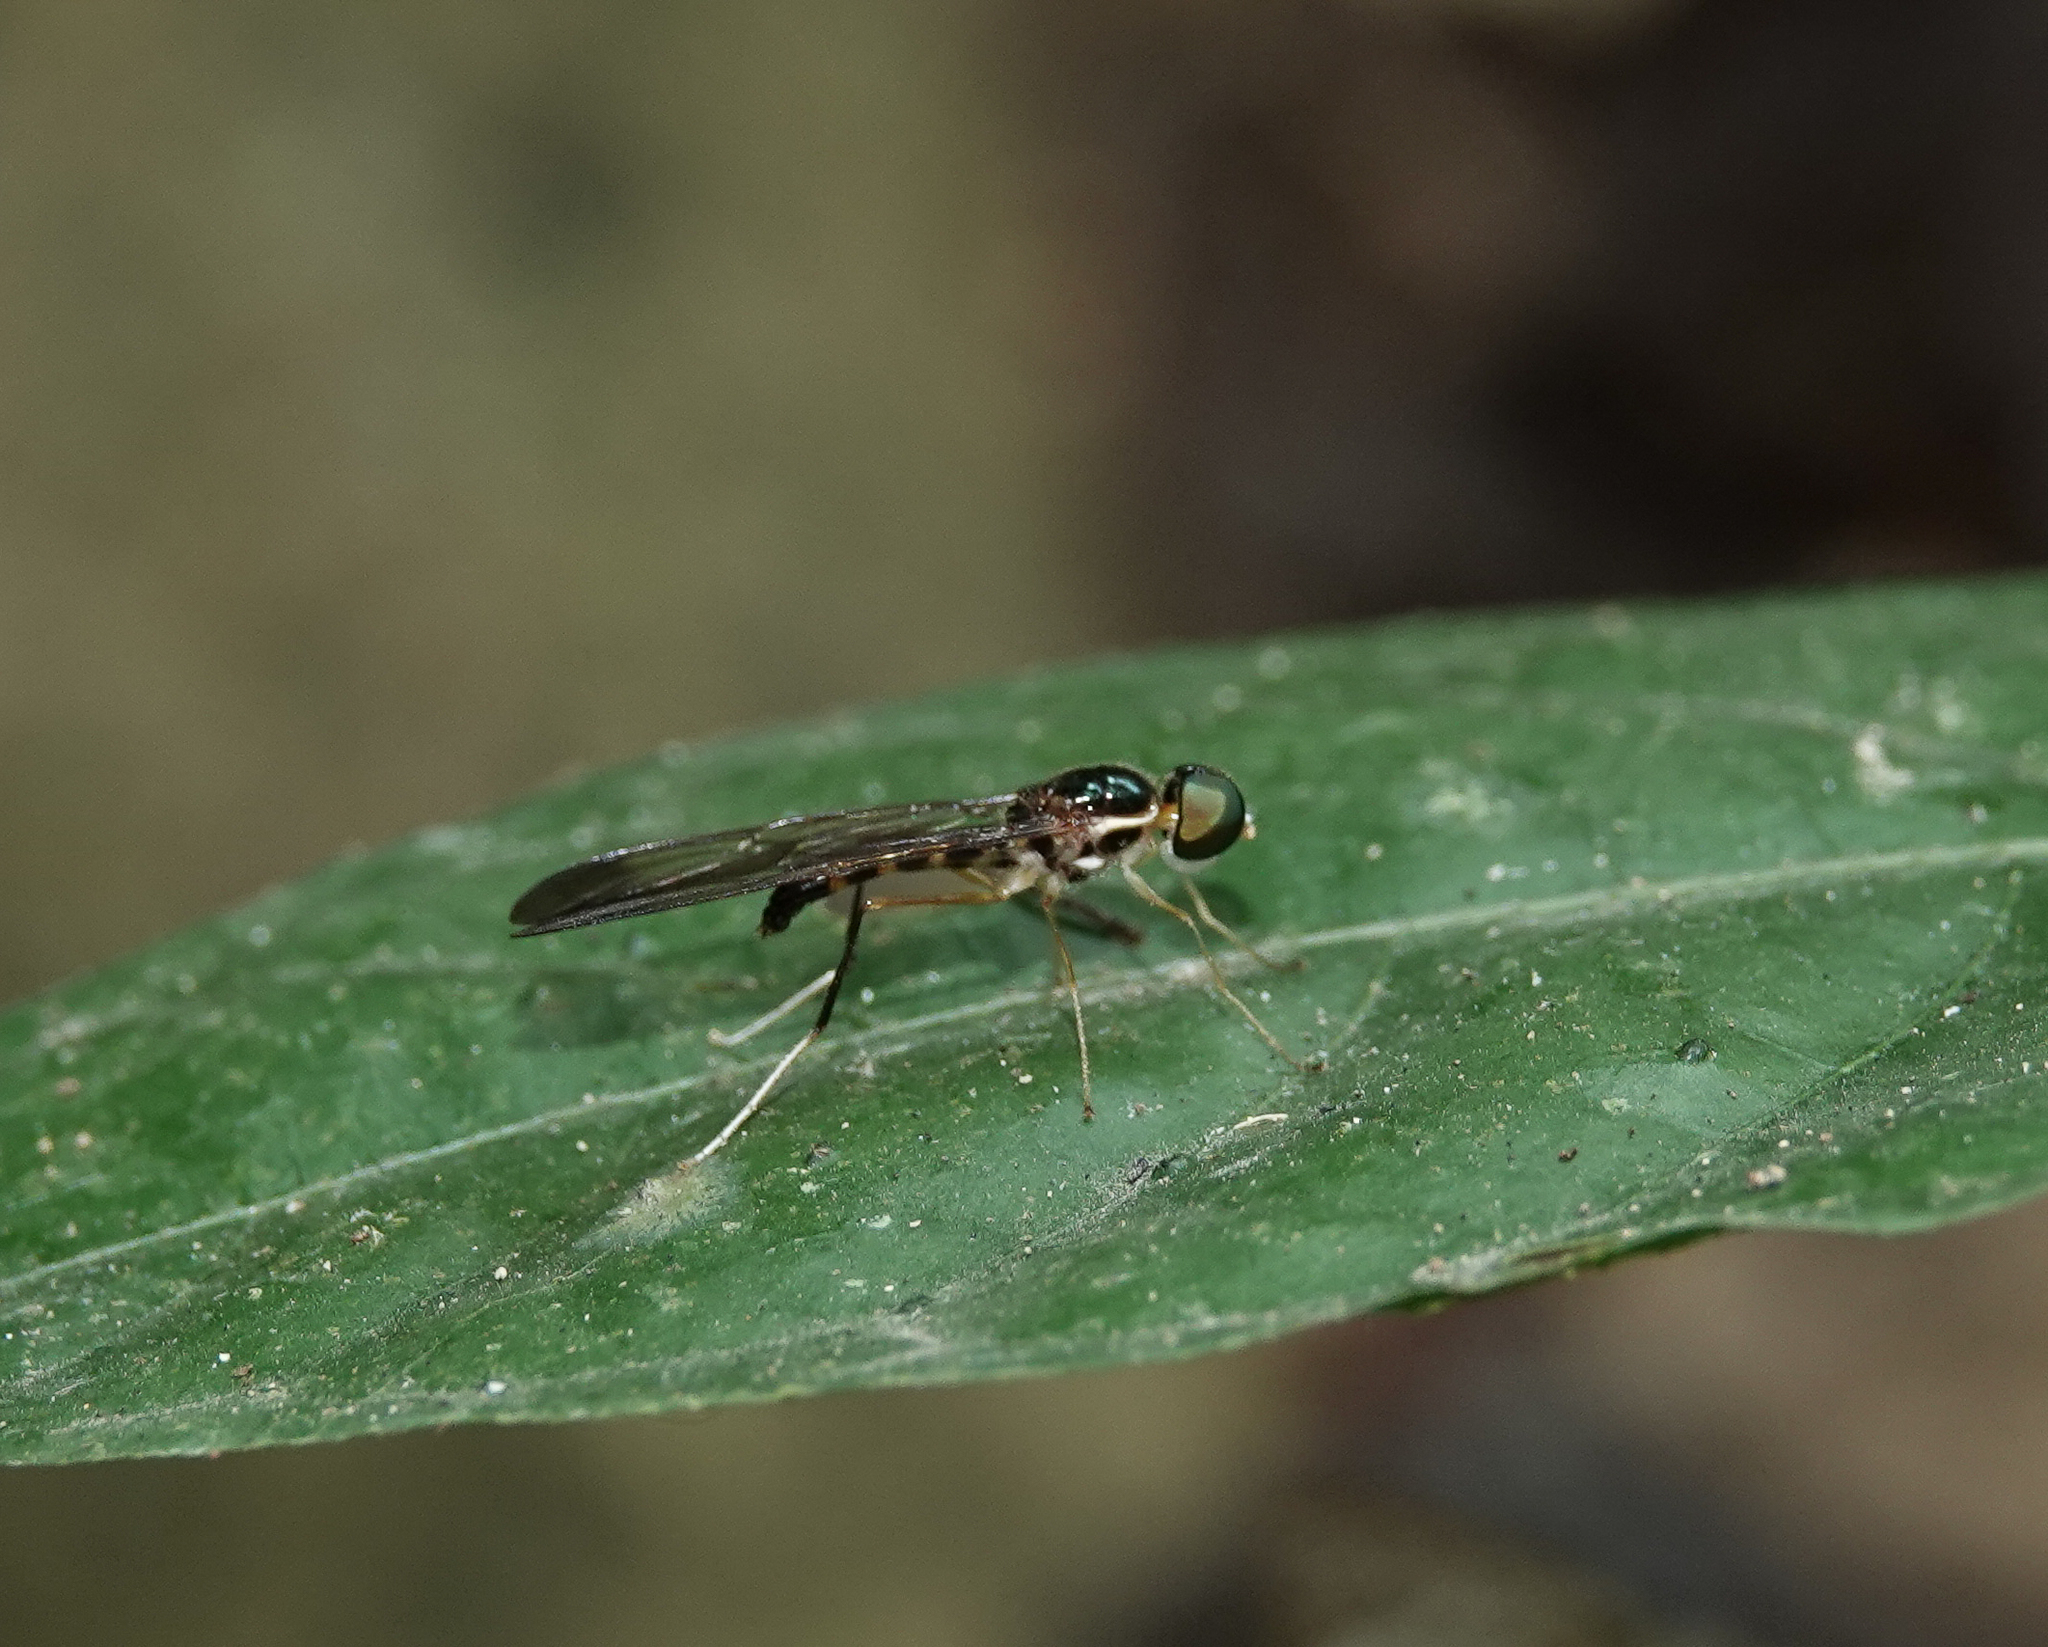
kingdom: Animalia
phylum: Arthropoda
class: Insecta
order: Diptera
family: Stratiomyidae
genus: Ptecticus
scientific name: Ptecticus longipennis
